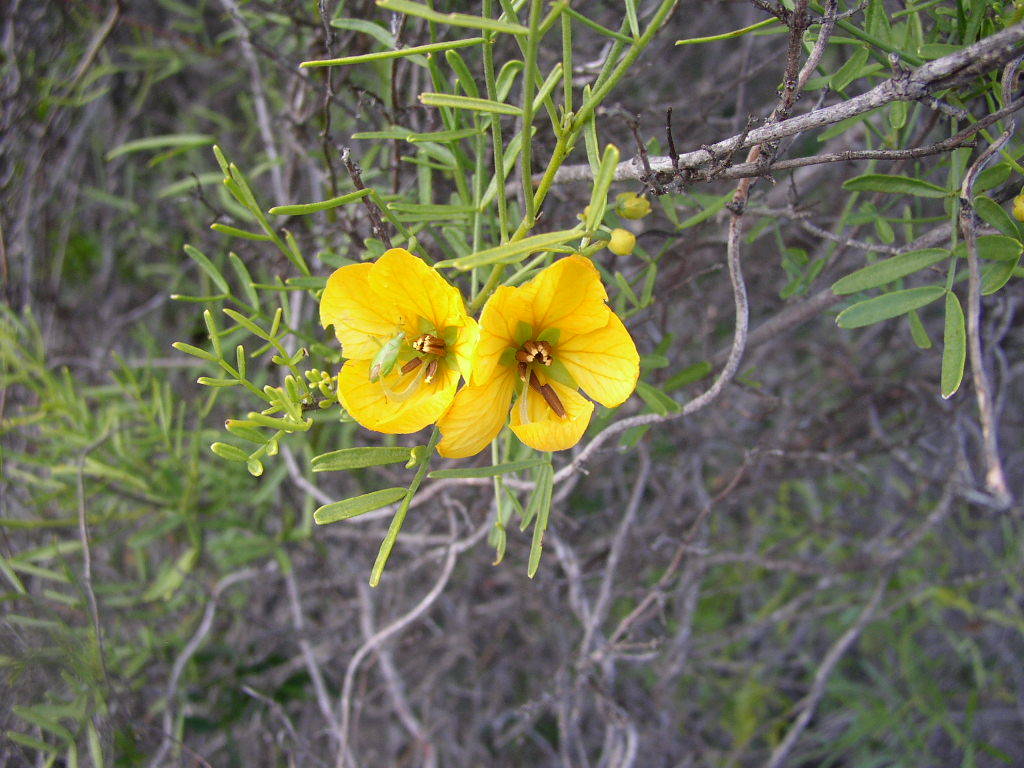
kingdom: Plantae
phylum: Tracheophyta
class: Magnoliopsida
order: Fabales
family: Fabaceae
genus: Senna
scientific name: Senna glutinosa
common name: Green acacia
